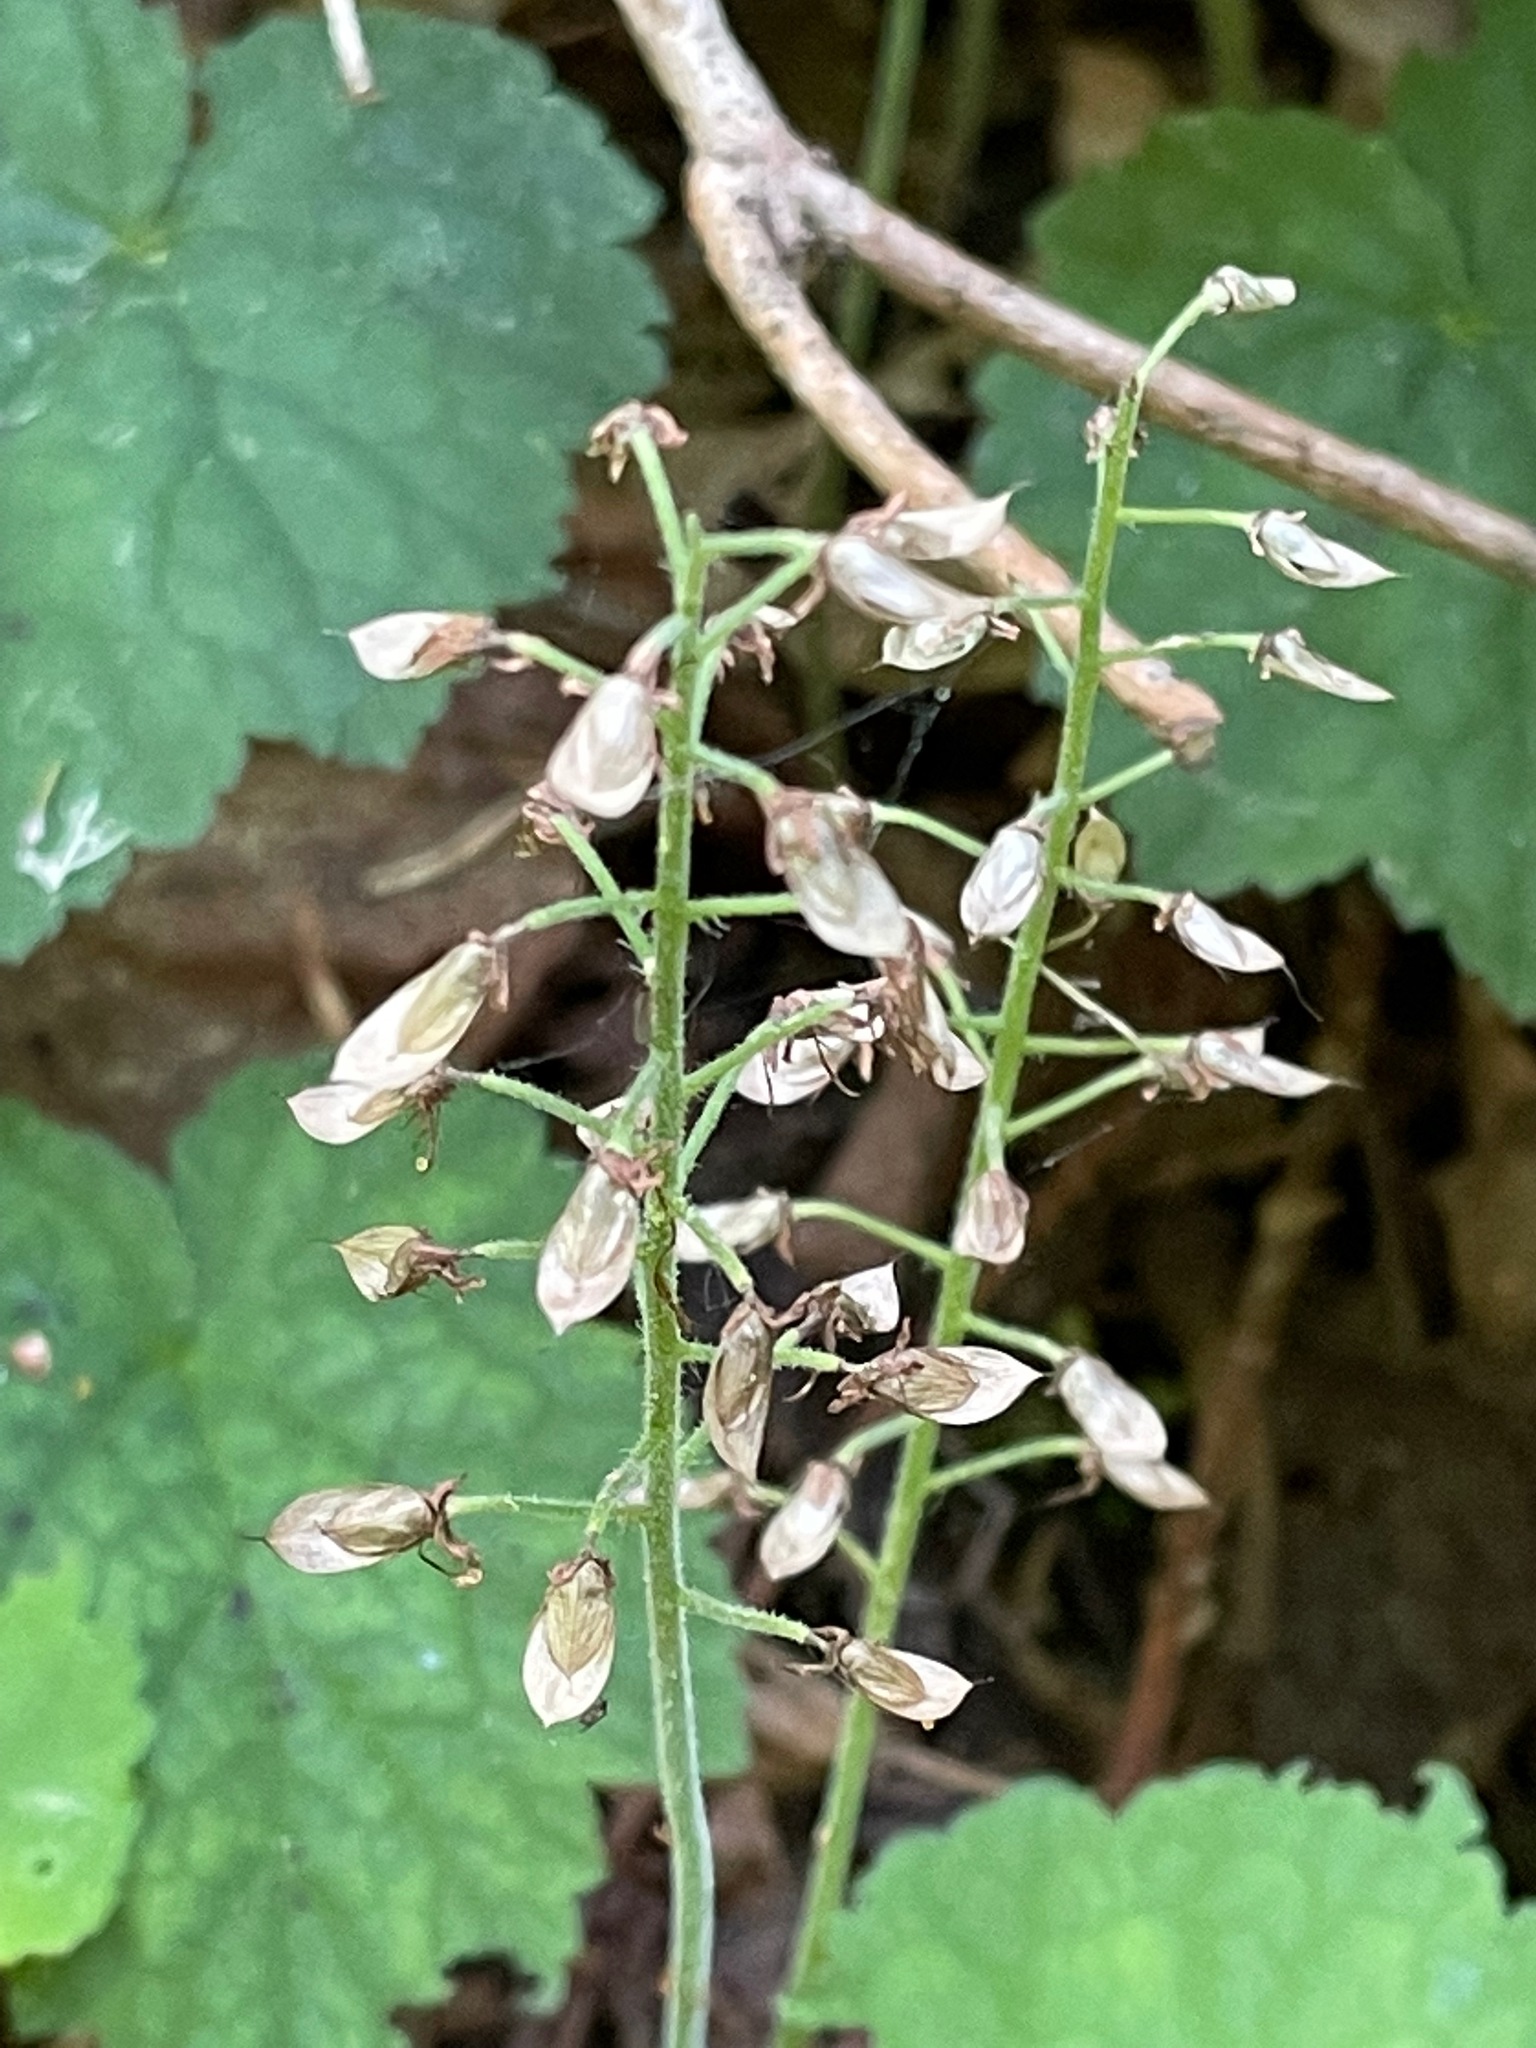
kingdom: Plantae
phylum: Tracheophyta
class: Magnoliopsida
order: Saxifragales
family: Saxifragaceae
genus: Tiarella
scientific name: Tiarella stolonifera
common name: Stoloniferous foamflower
